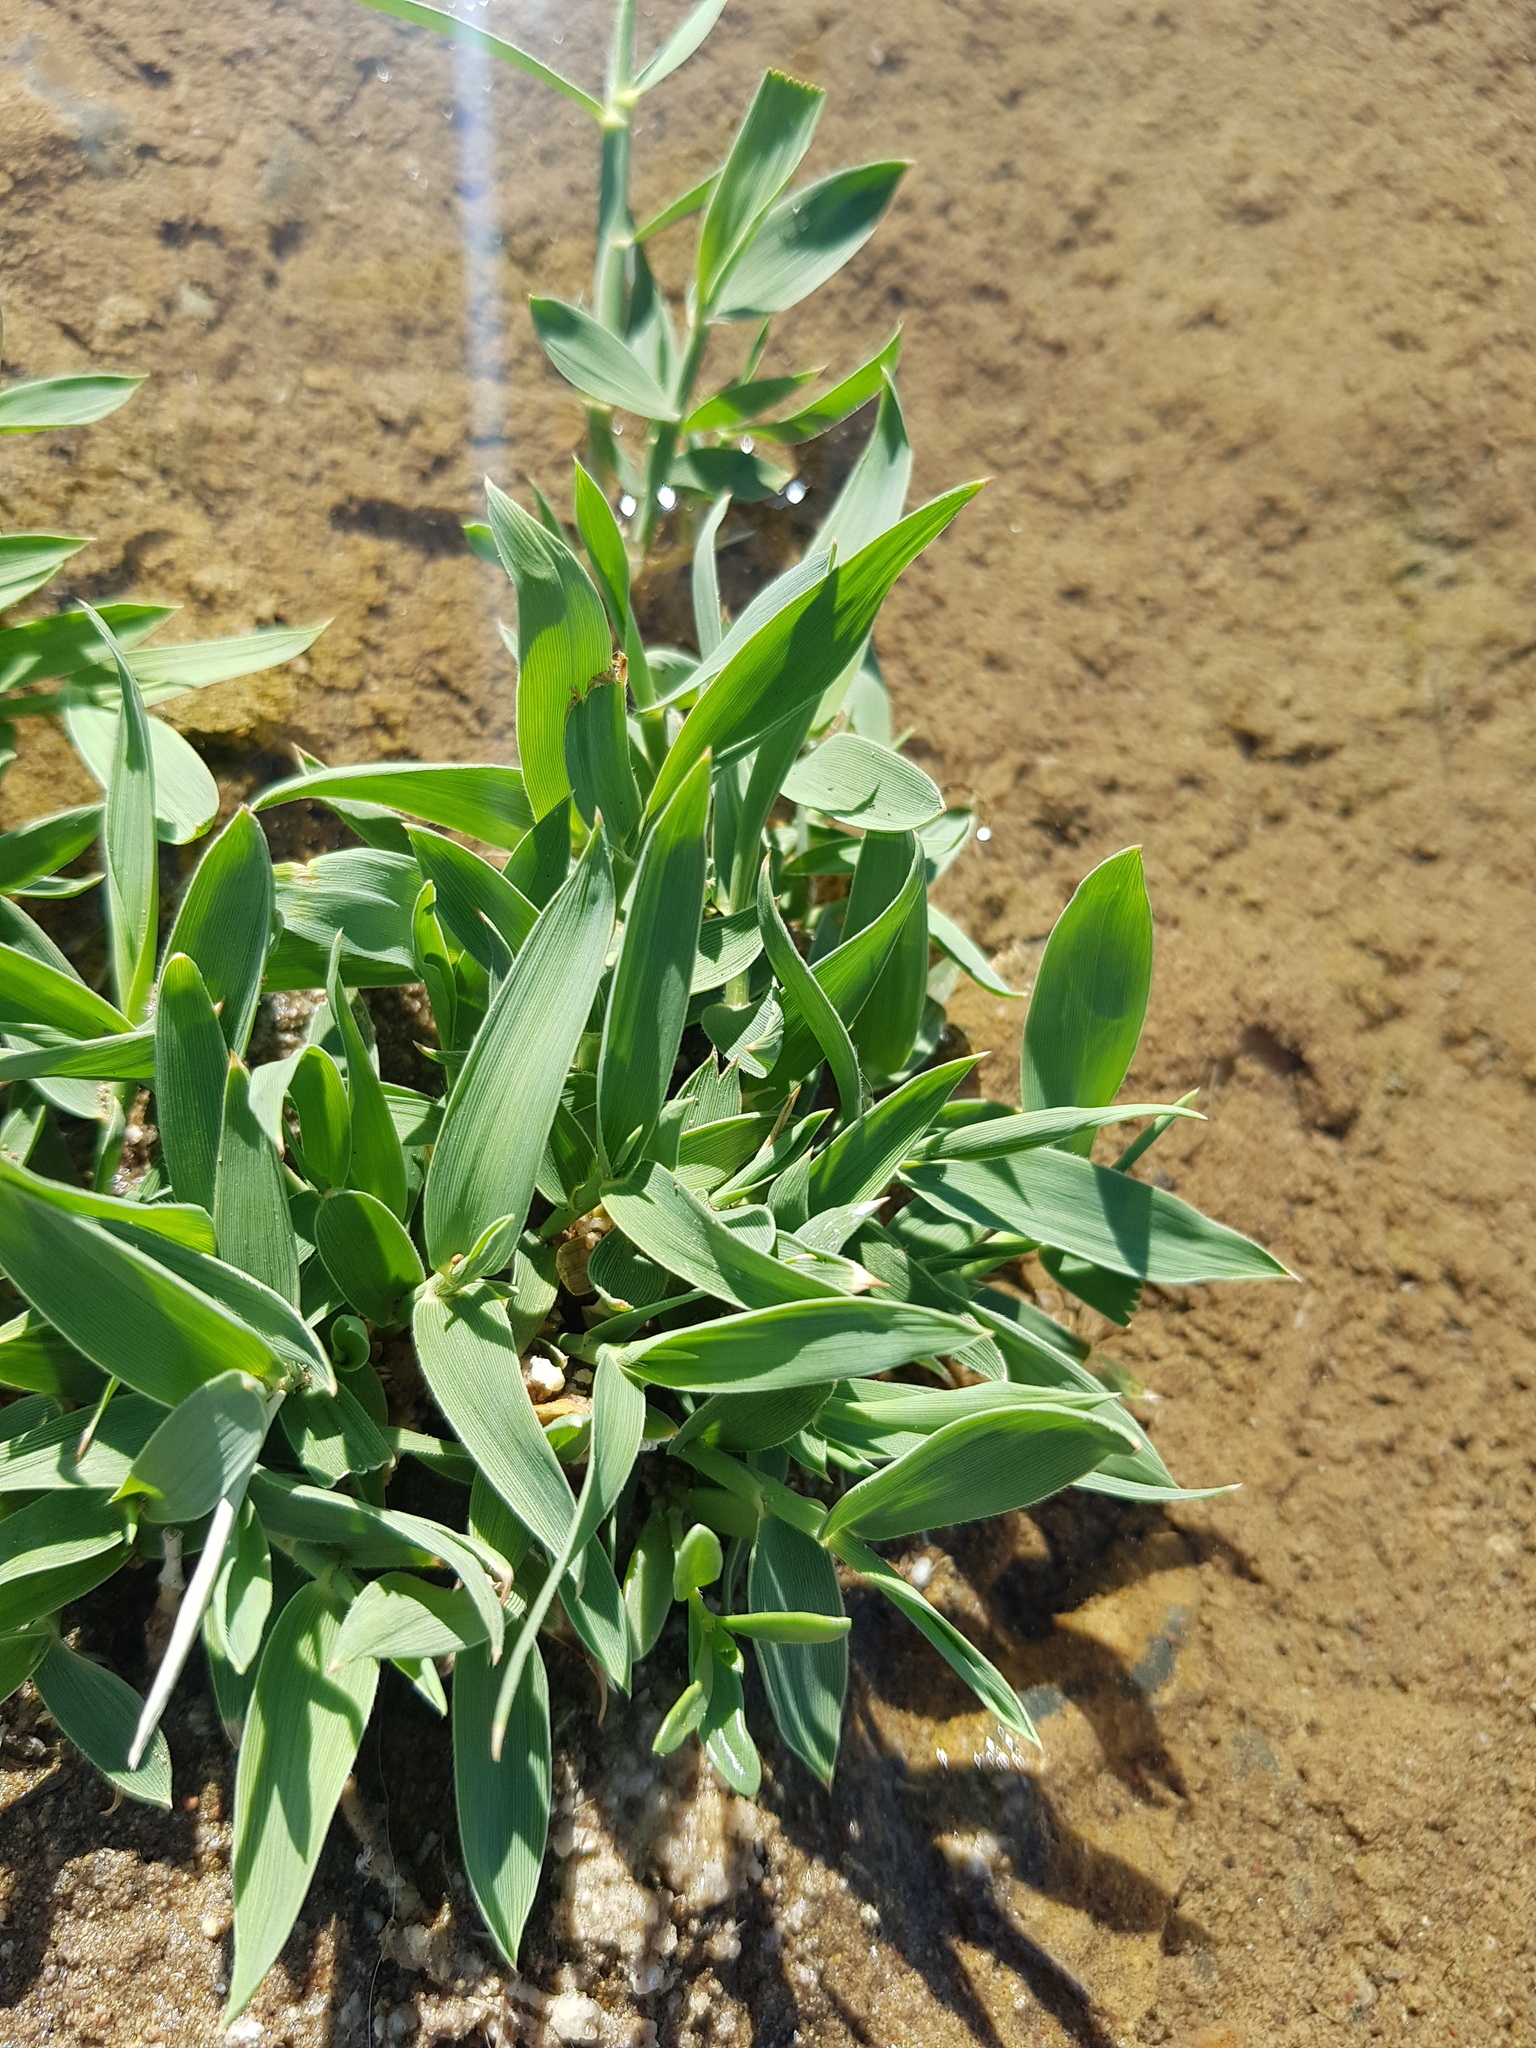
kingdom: Plantae
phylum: Tracheophyta
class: Liliopsida
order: Poales
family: Poaceae
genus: Phragmites
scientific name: Phragmites australis
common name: Common reed
